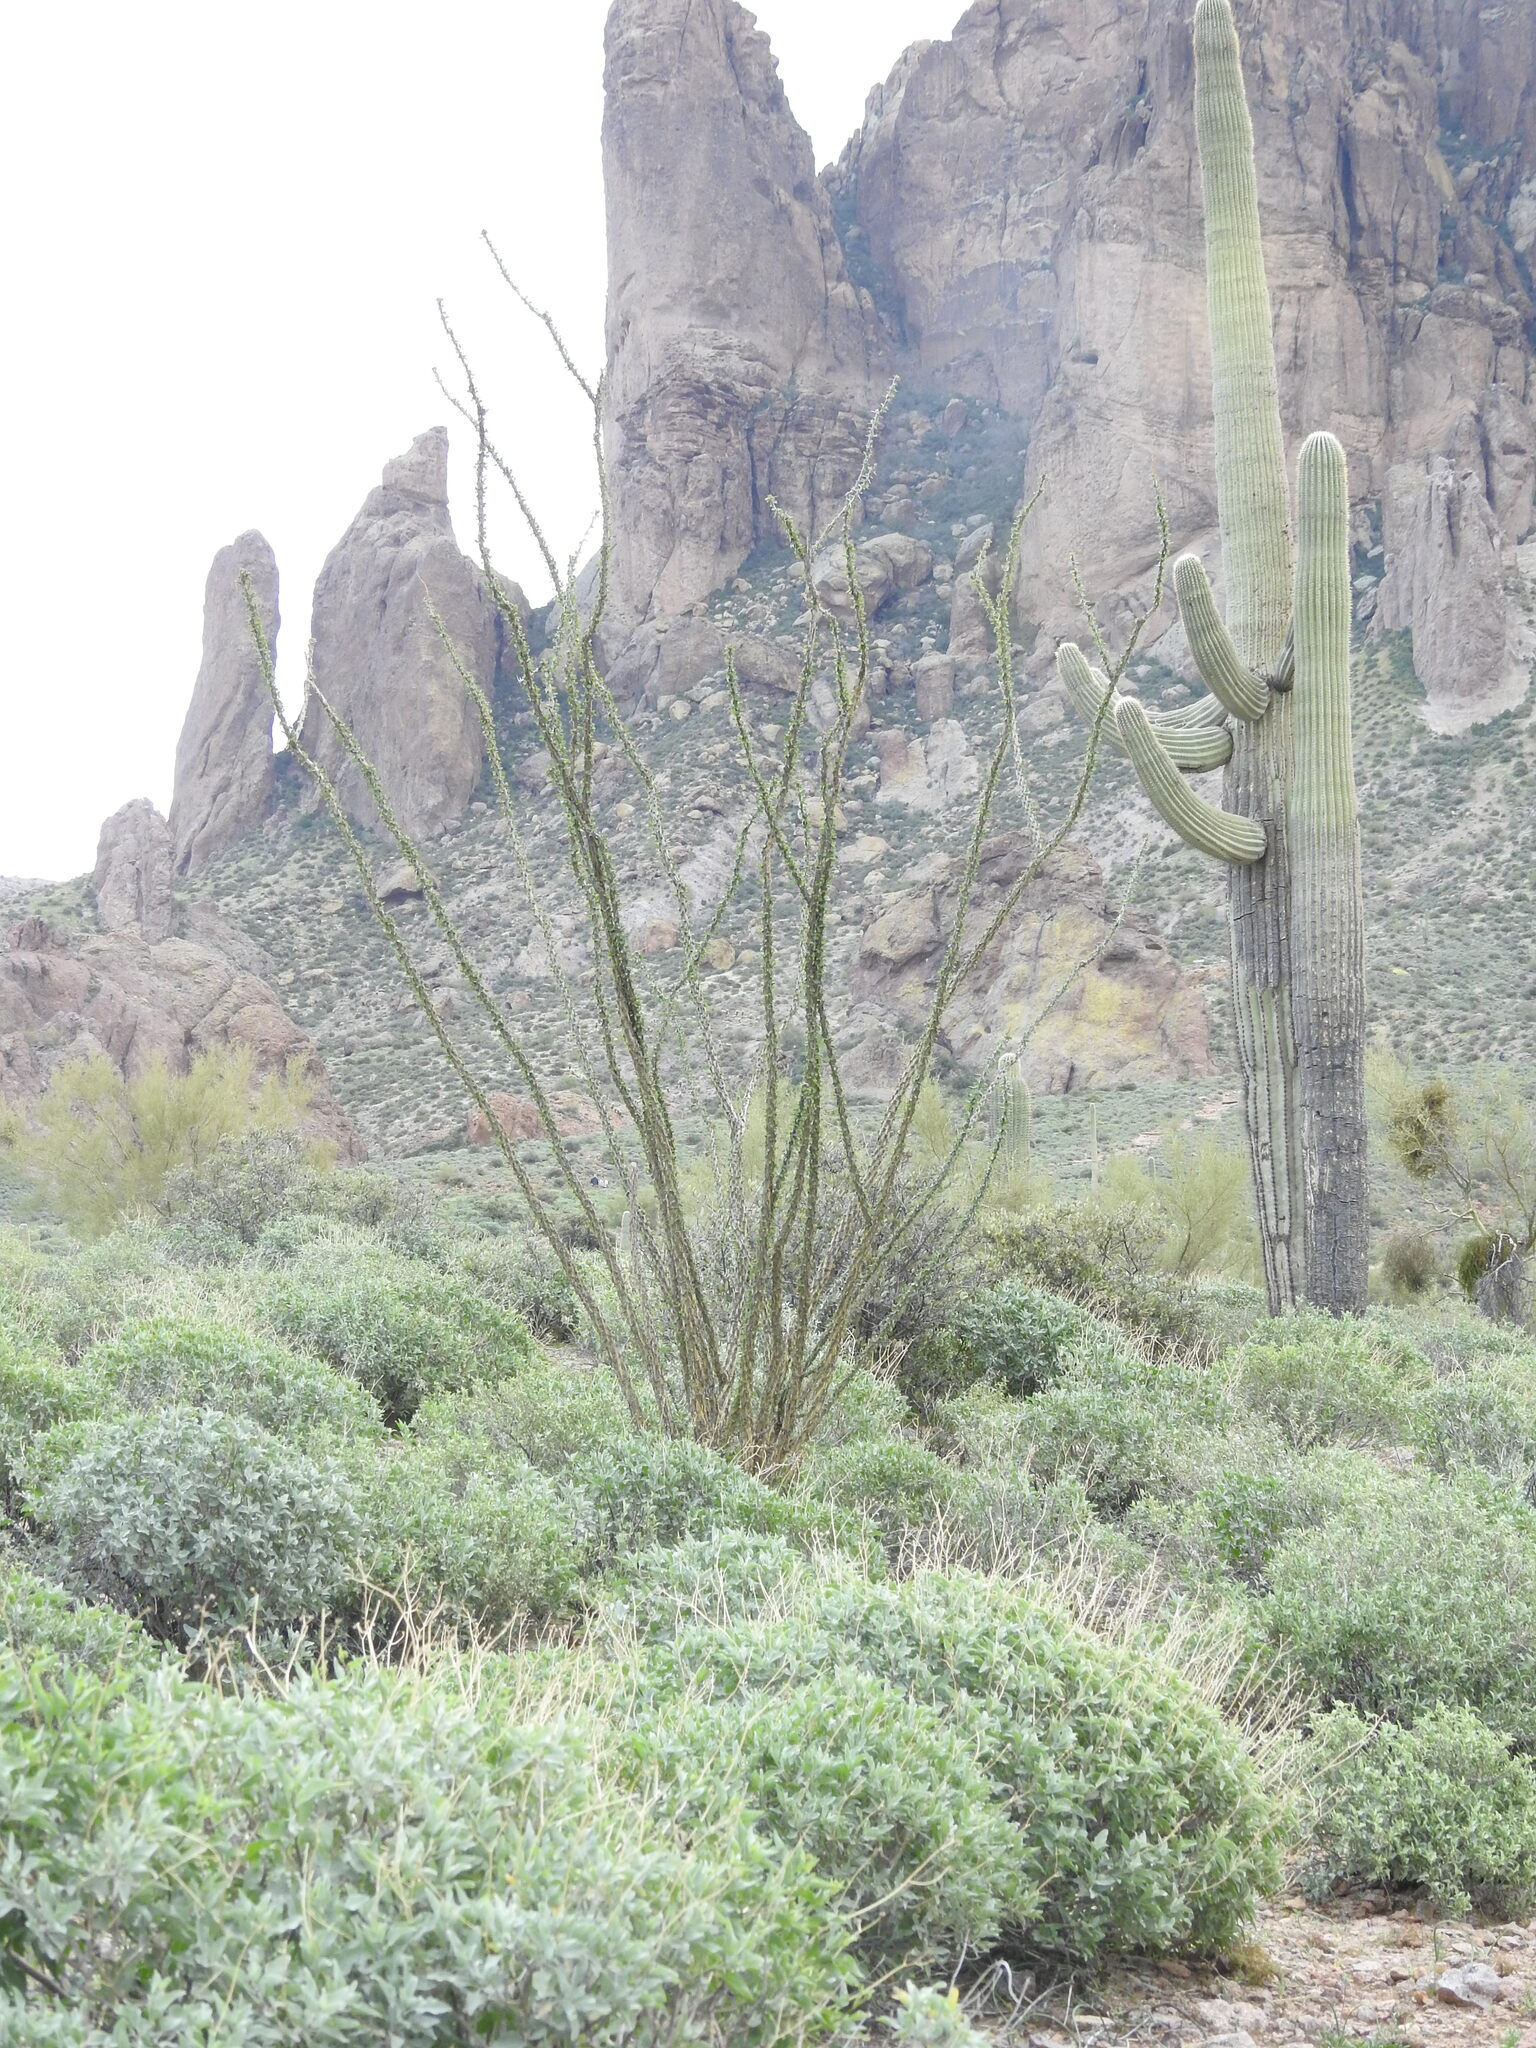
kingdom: Plantae
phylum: Tracheophyta
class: Magnoliopsida
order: Ericales
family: Fouquieriaceae
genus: Fouquieria
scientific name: Fouquieria splendens
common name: Vine-cactus
